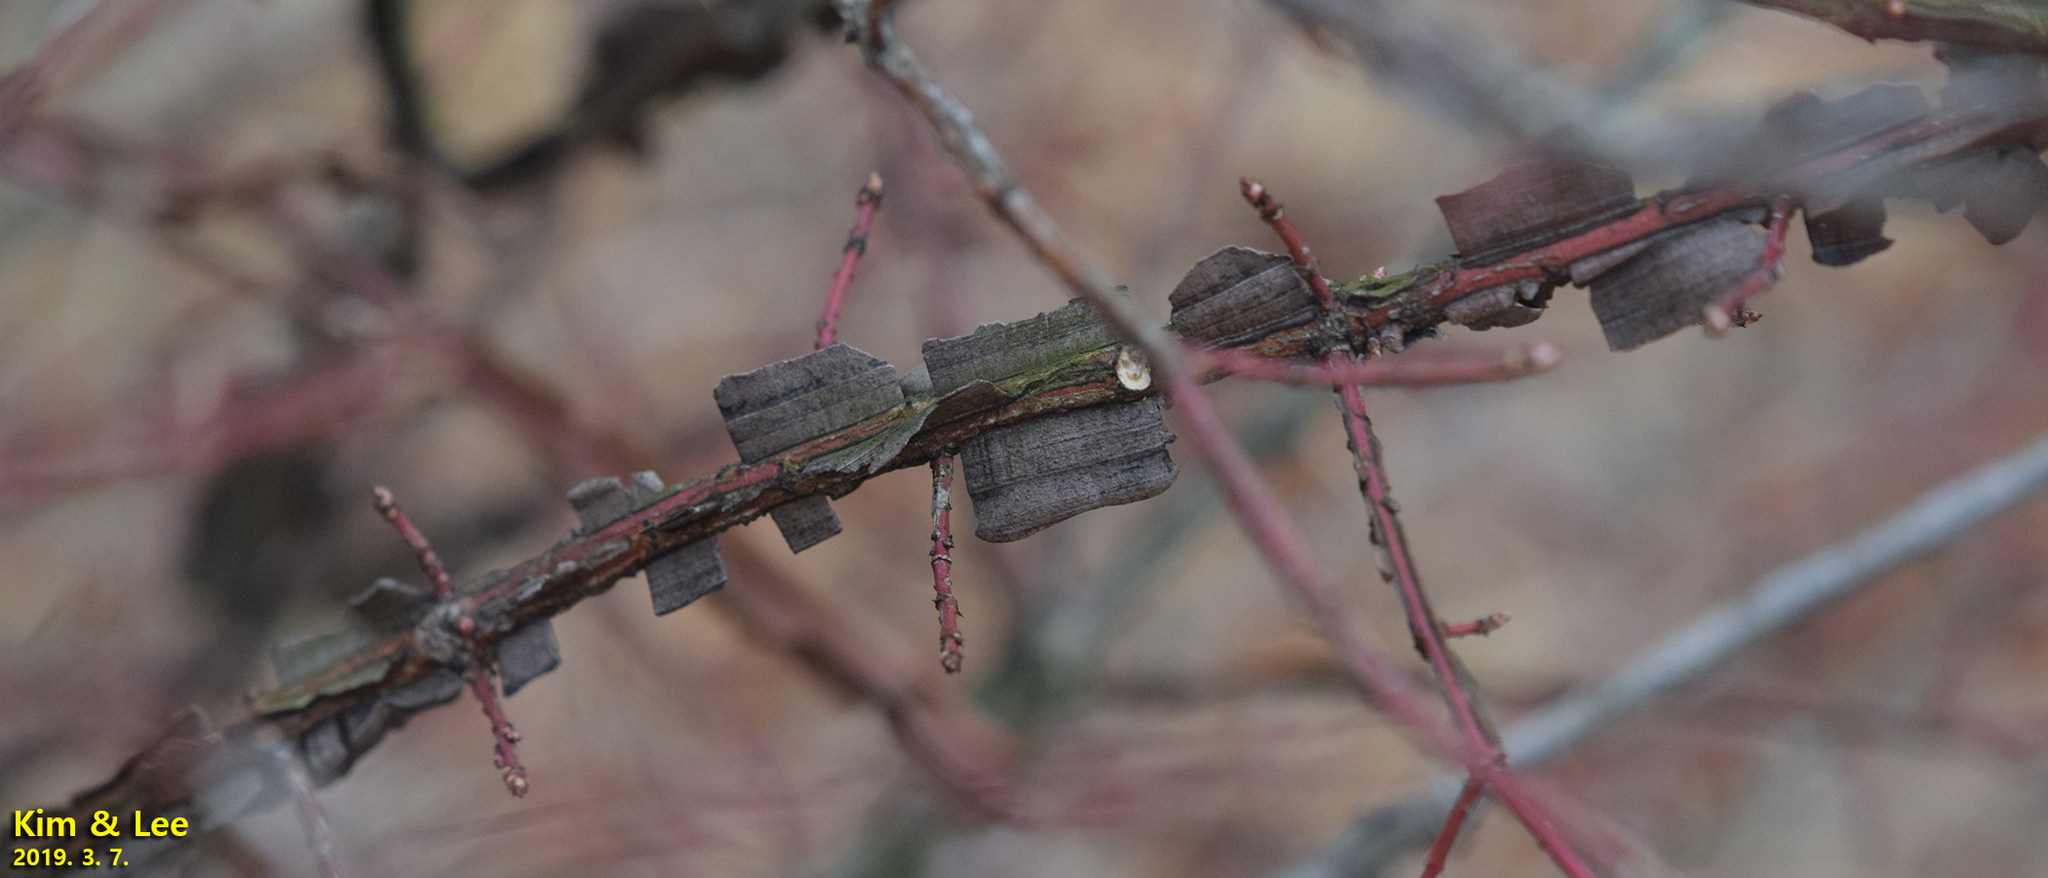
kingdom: Plantae
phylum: Tracheophyta
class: Magnoliopsida
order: Celastrales
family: Celastraceae
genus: Euonymus
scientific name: Euonymus alatus
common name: Winged euonymus
